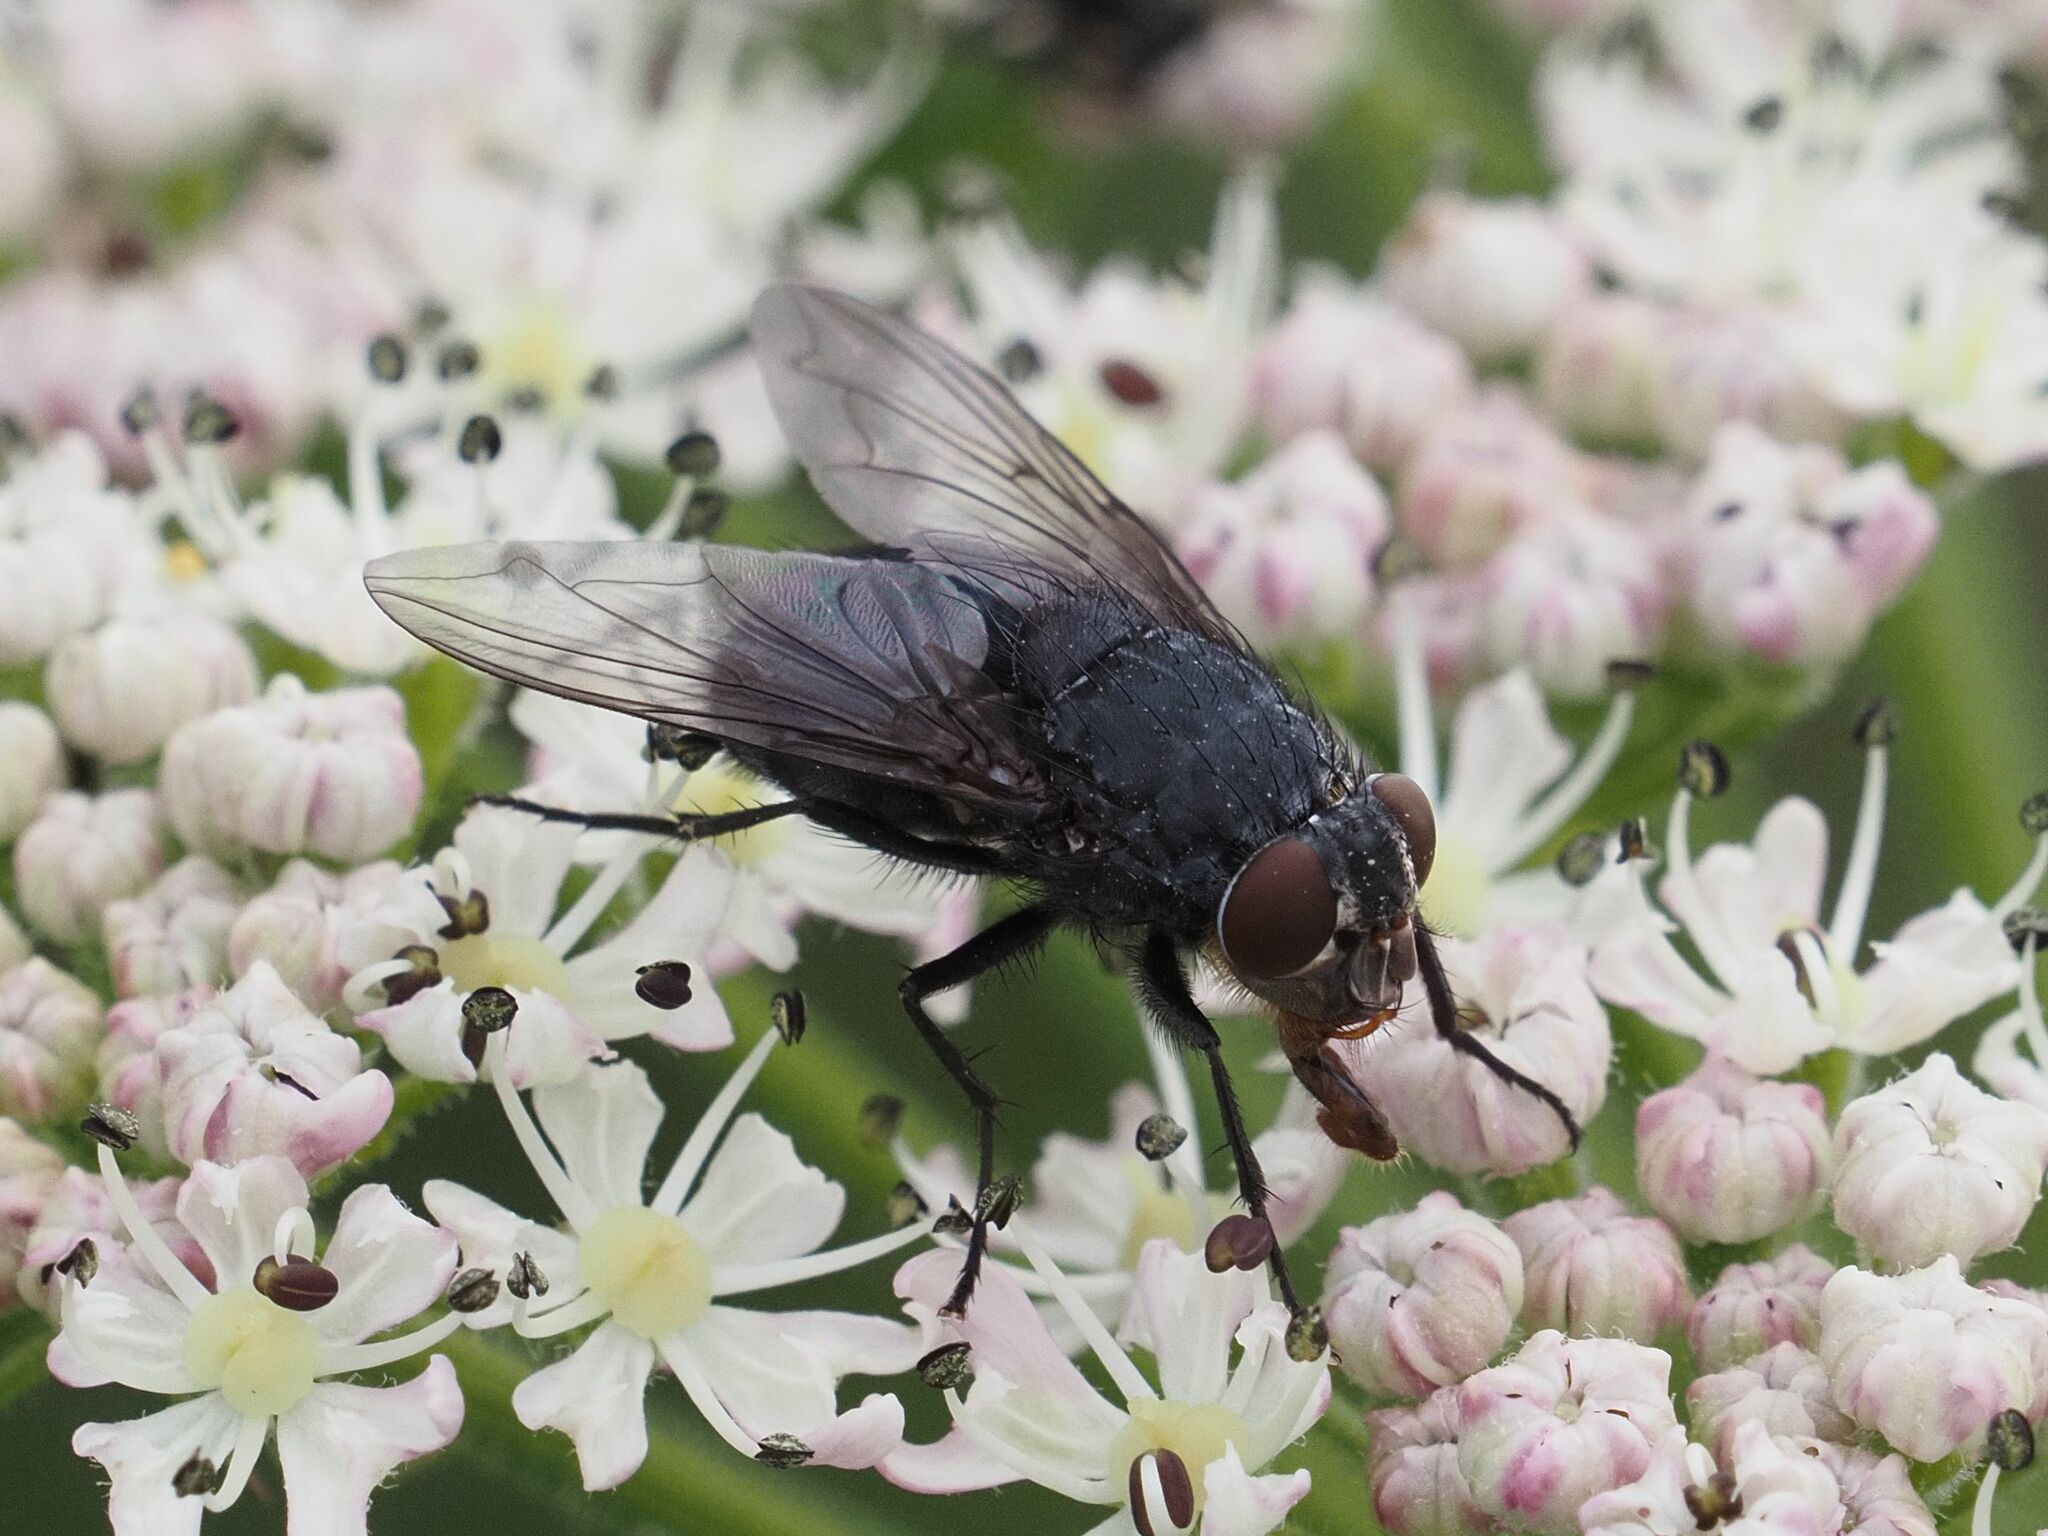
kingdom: Animalia
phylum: Arthropoda
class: Insecta
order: Diptera
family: Calliphoridae
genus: Calliphora
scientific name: Calliphora vomitoria
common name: Blue bottle fly
